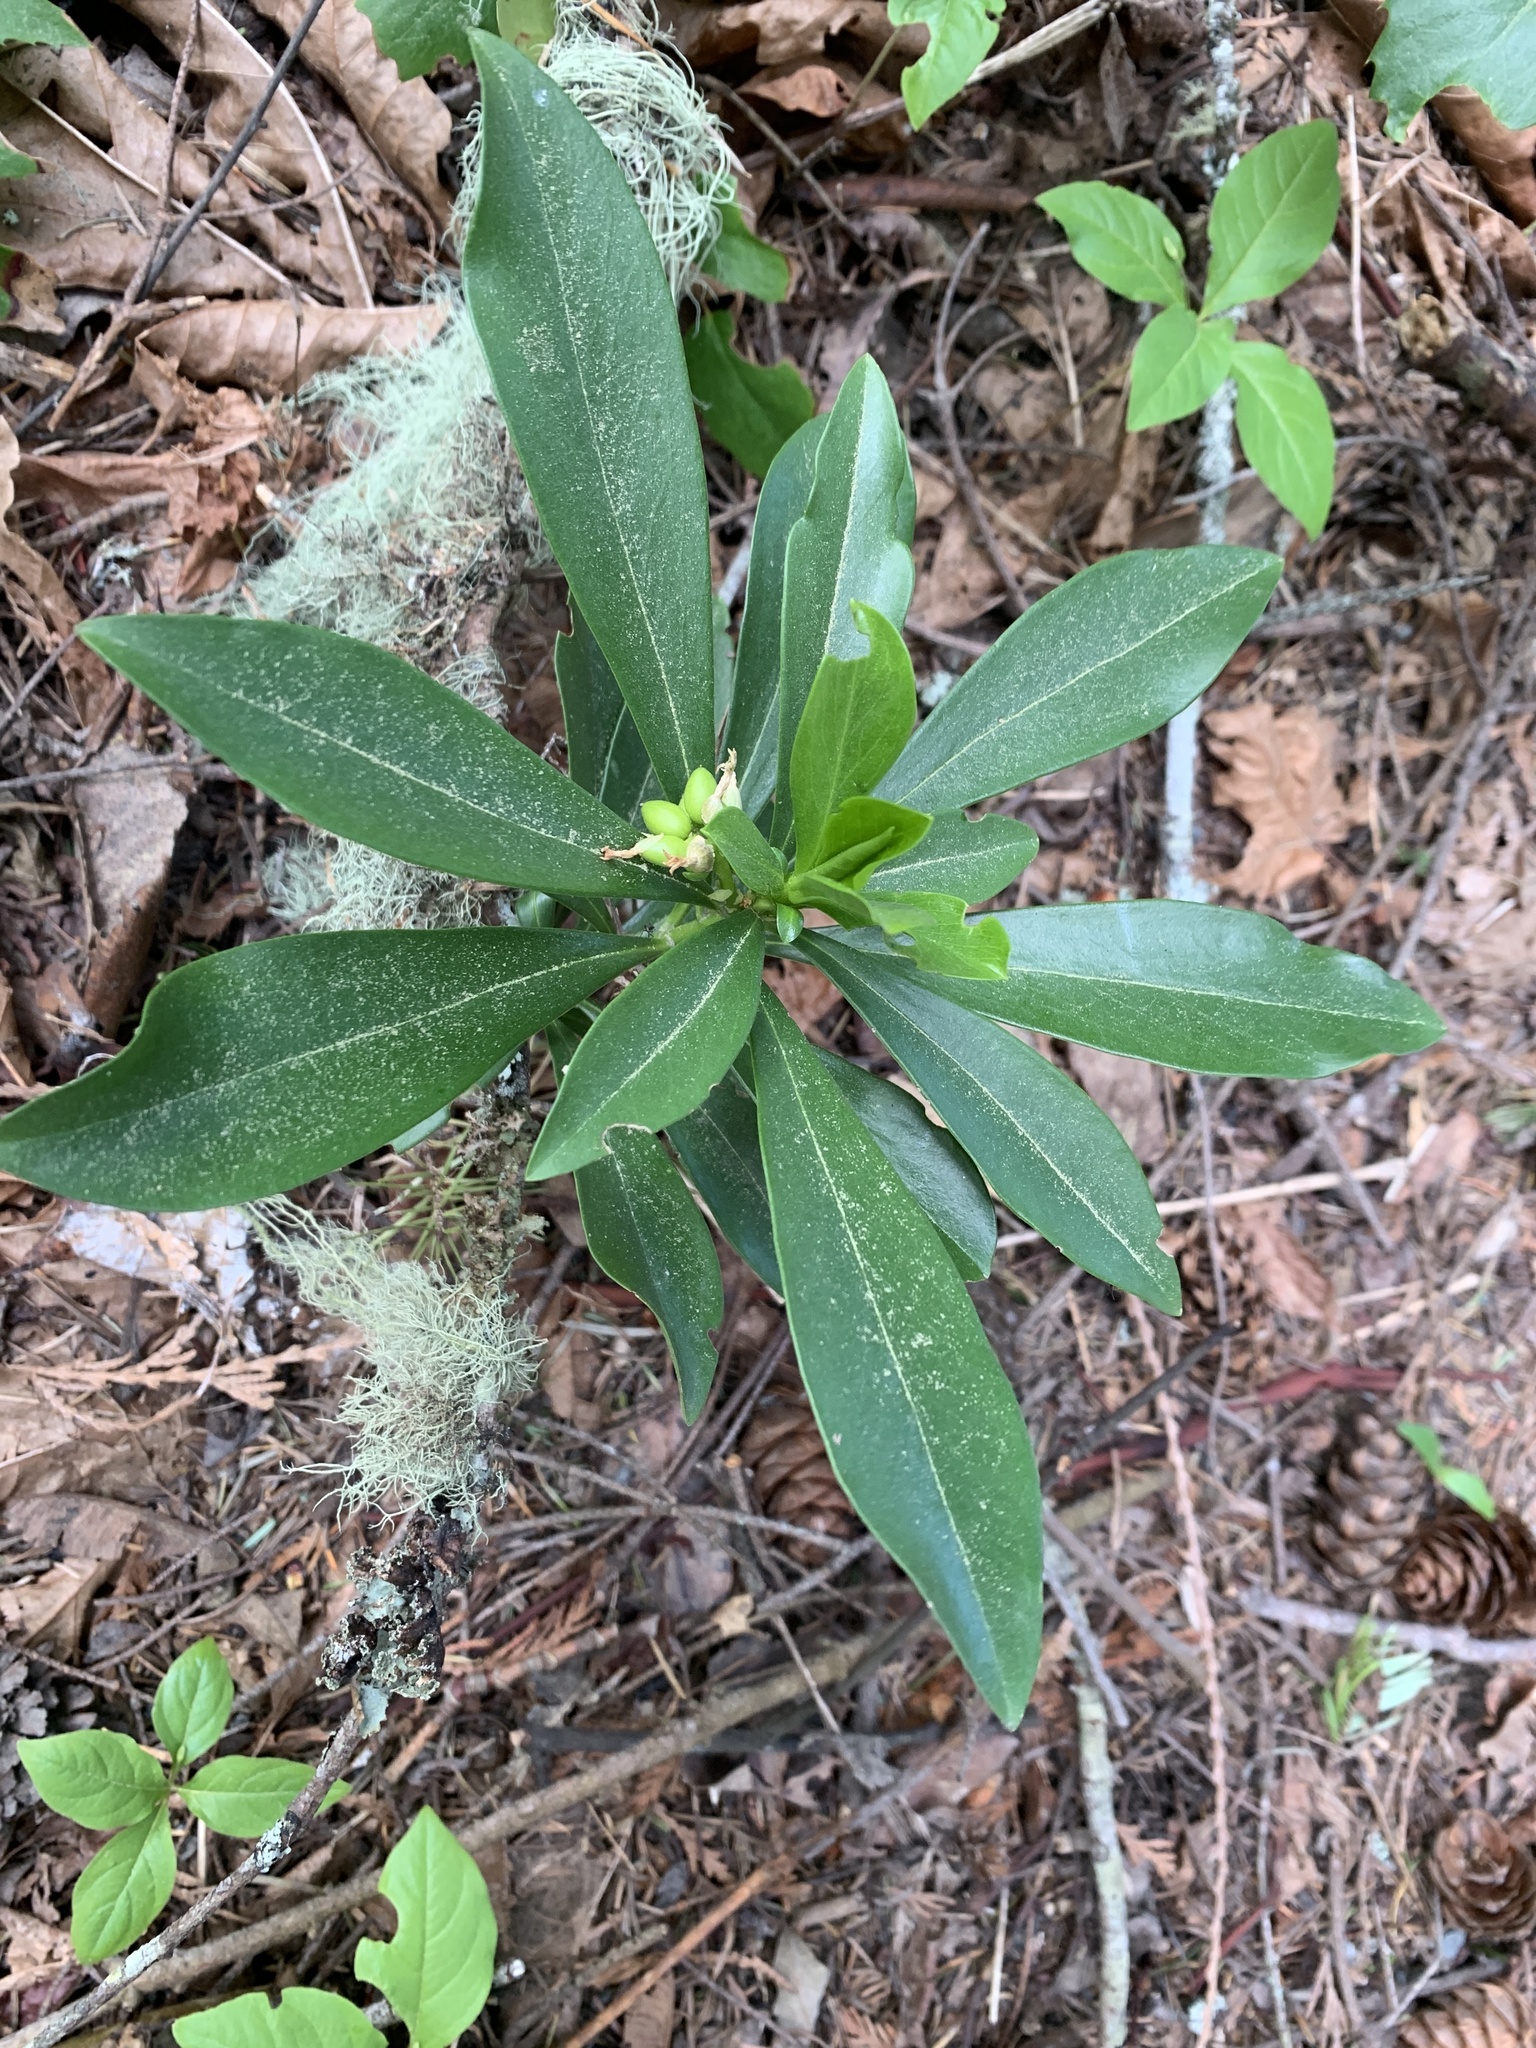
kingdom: Plantae
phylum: Tracheophyta
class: Magnoliopsida
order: Malvales
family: Thymelaeaceae
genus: Daphne
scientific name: Daphne laureola
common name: Spurge-laurel
